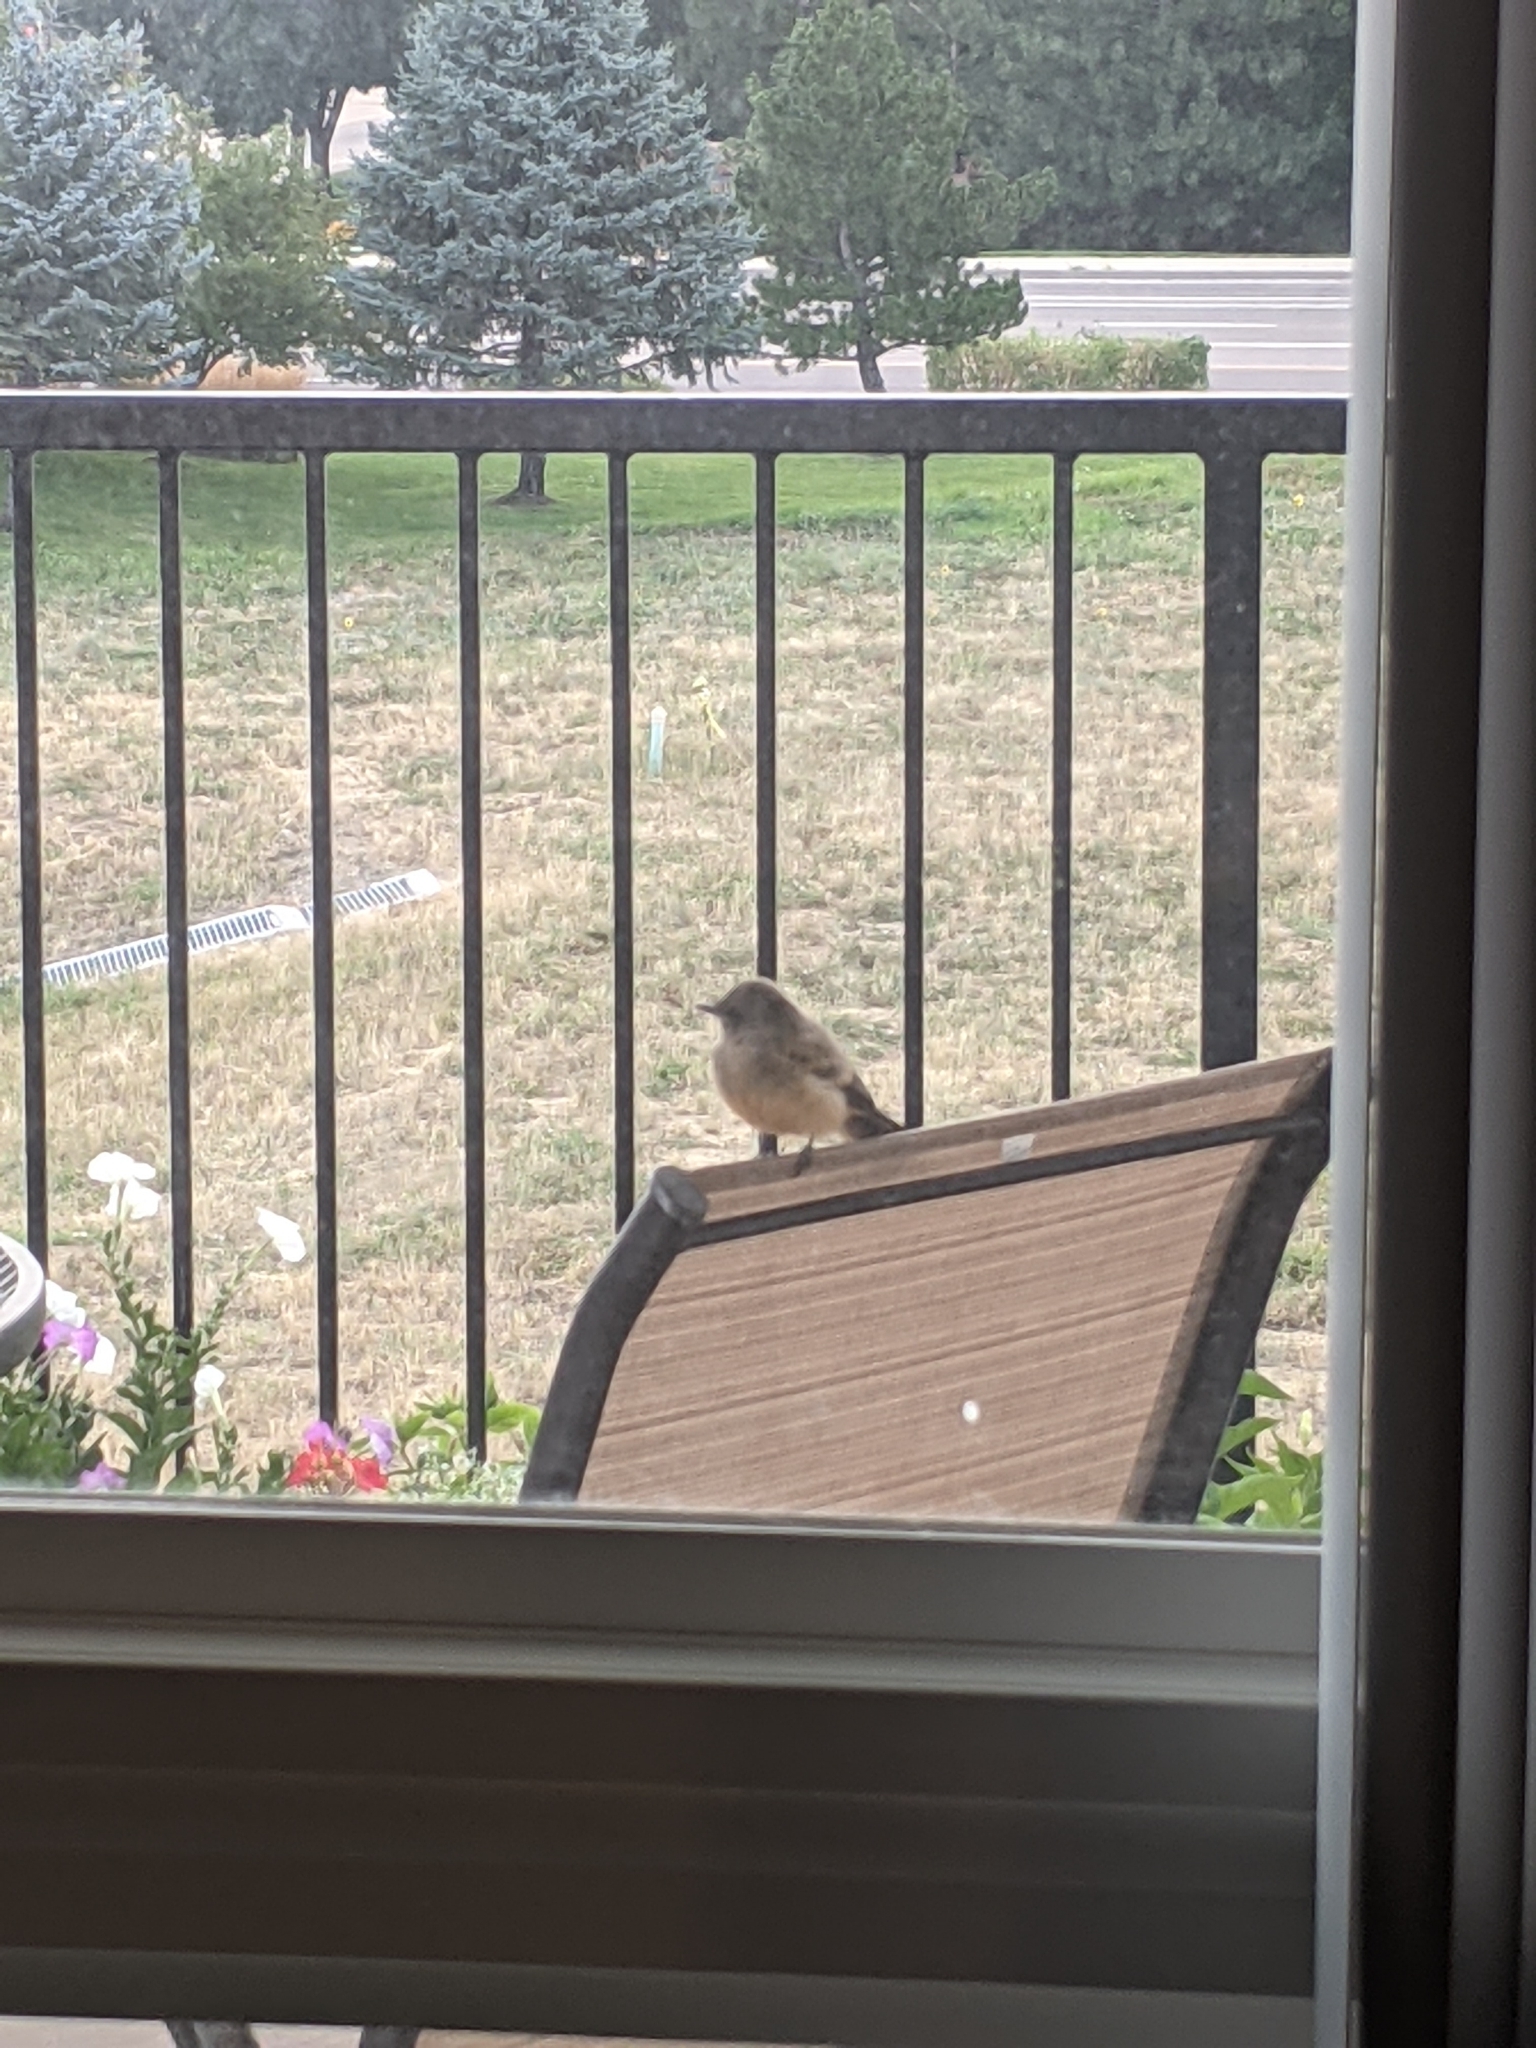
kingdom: Animalia
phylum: Chordata
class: Aves
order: Passeriformes
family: Tyrannidae
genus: Sayornis
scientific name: Sayornis saya
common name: Say's phoebe
